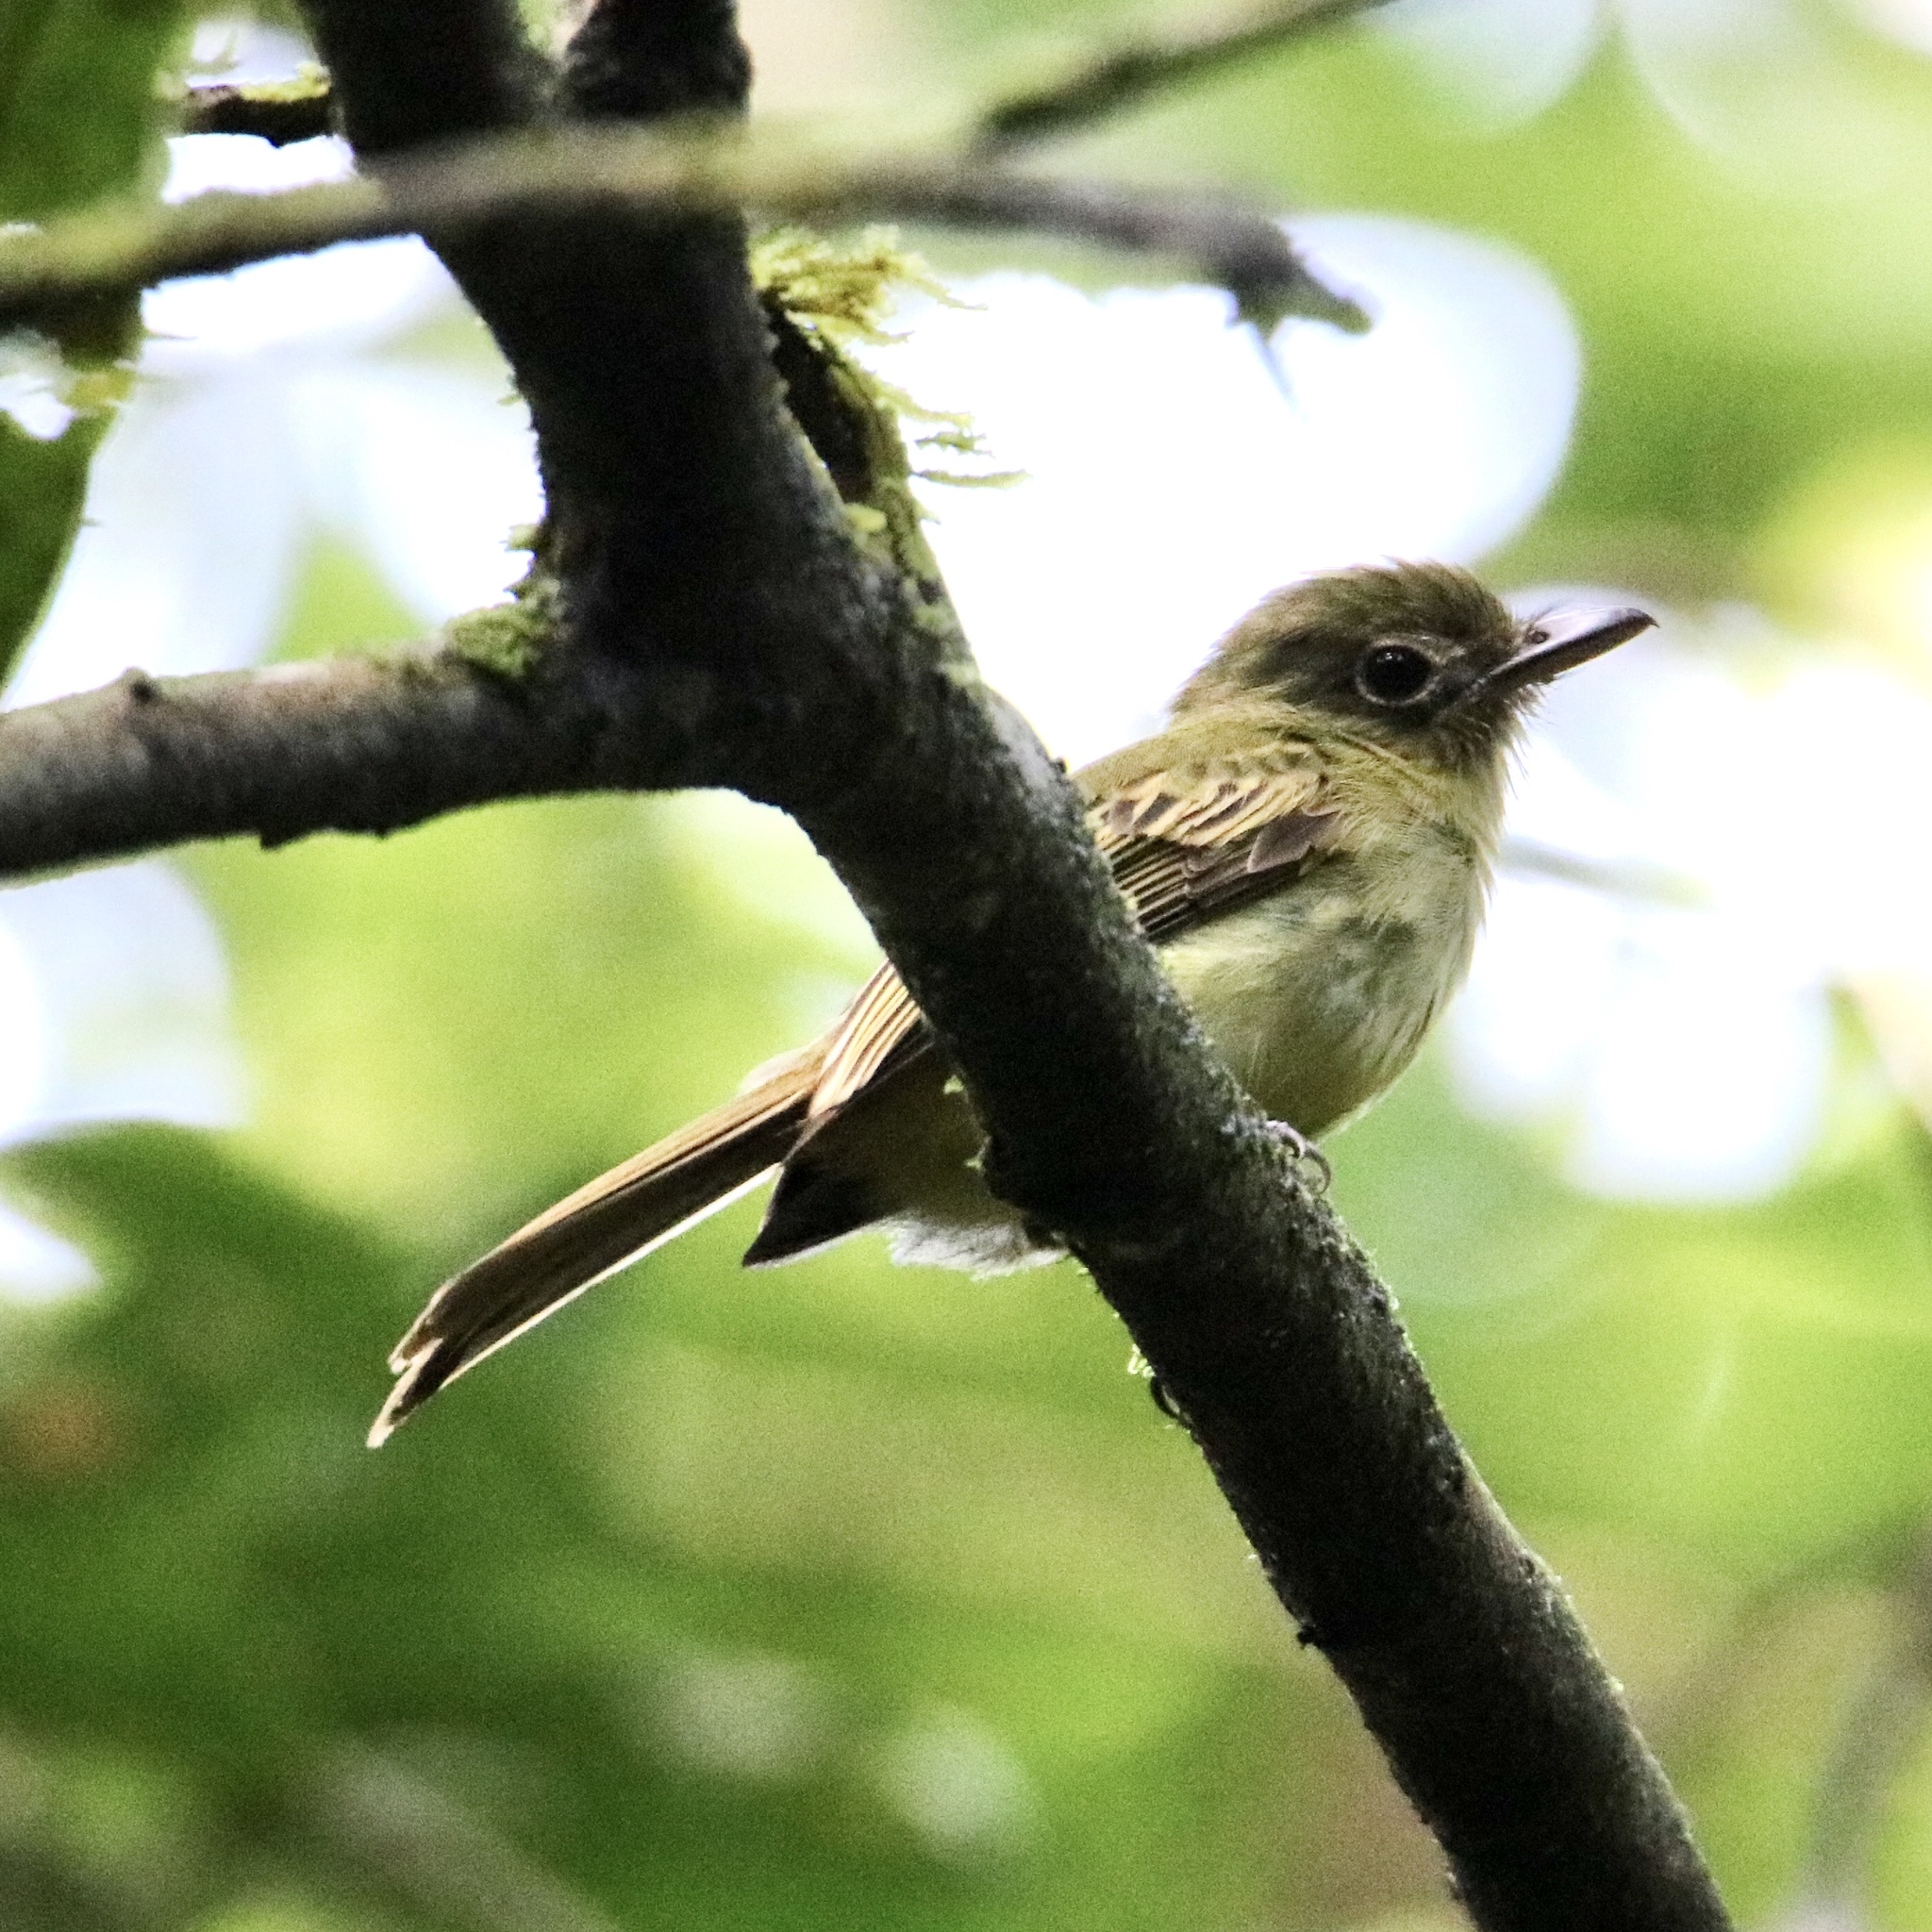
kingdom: Animalia
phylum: Chordata
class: Aves
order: Passeriformes
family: Tyrannidae
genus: Rhynchocyclus
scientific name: Rhynchocyclus olivaceus
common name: Olivaceous flatbill
